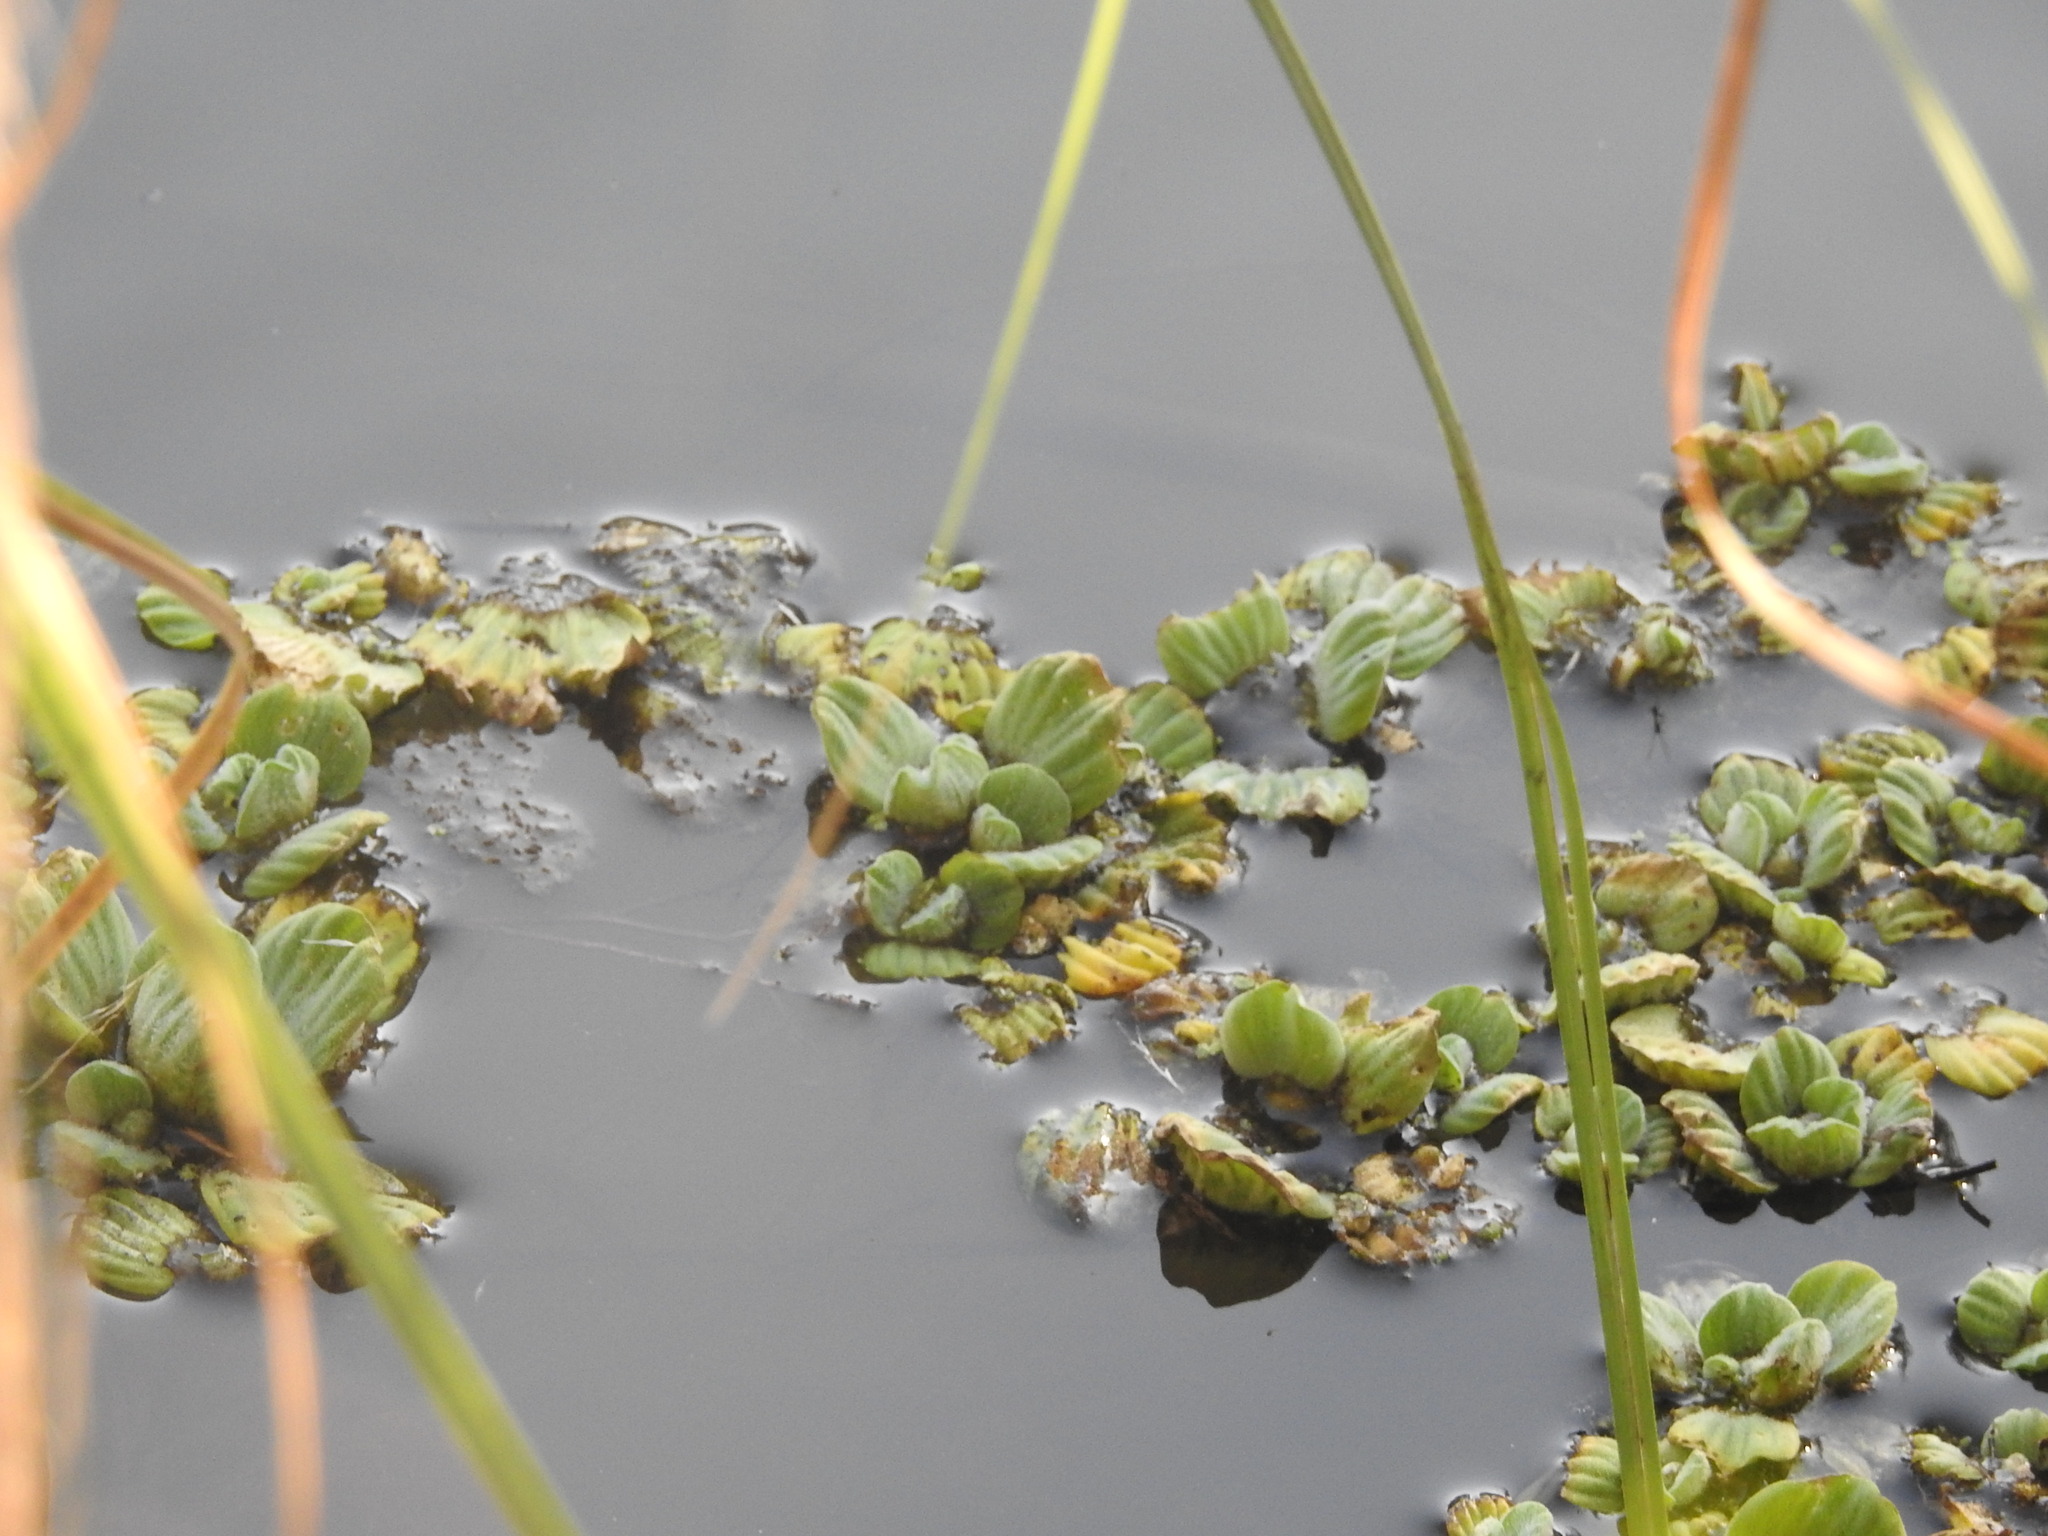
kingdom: Plantae
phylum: Tracheophyta
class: Liliopsida
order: Alismatales
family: Araceae
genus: Pistia
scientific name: Pistia stratiotes
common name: Water lettuce
